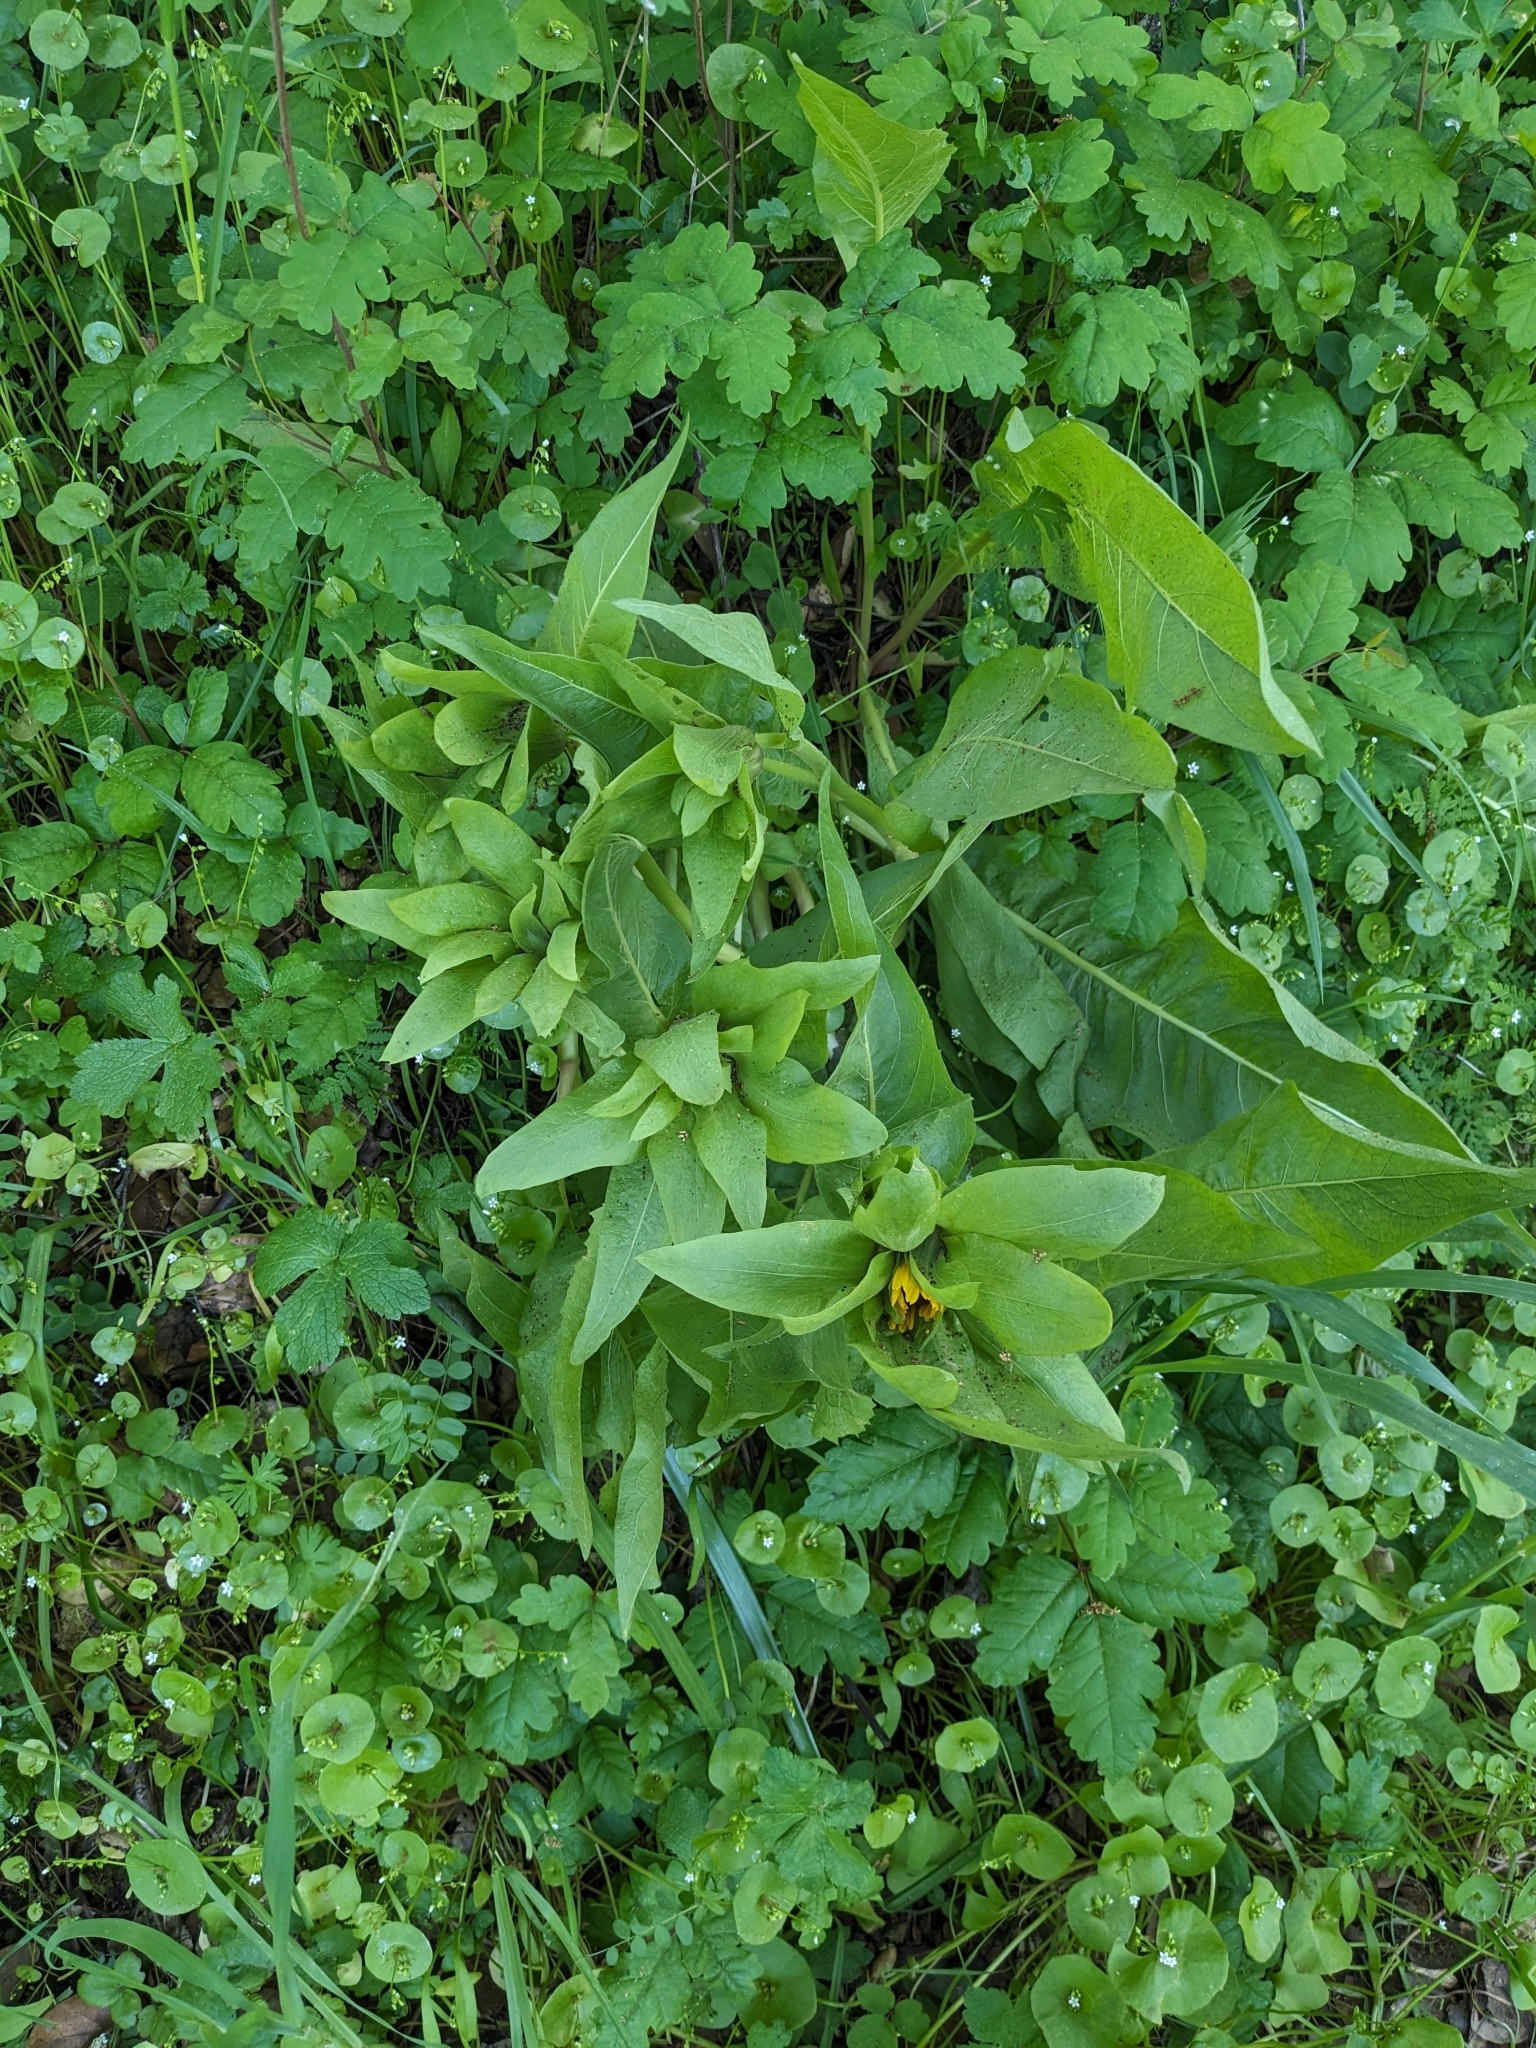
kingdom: Plantae
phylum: Tracheophyta
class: Magnoliopsida
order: Asterales
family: Asteraceae
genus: Wyethia
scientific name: Wyethia glabra
